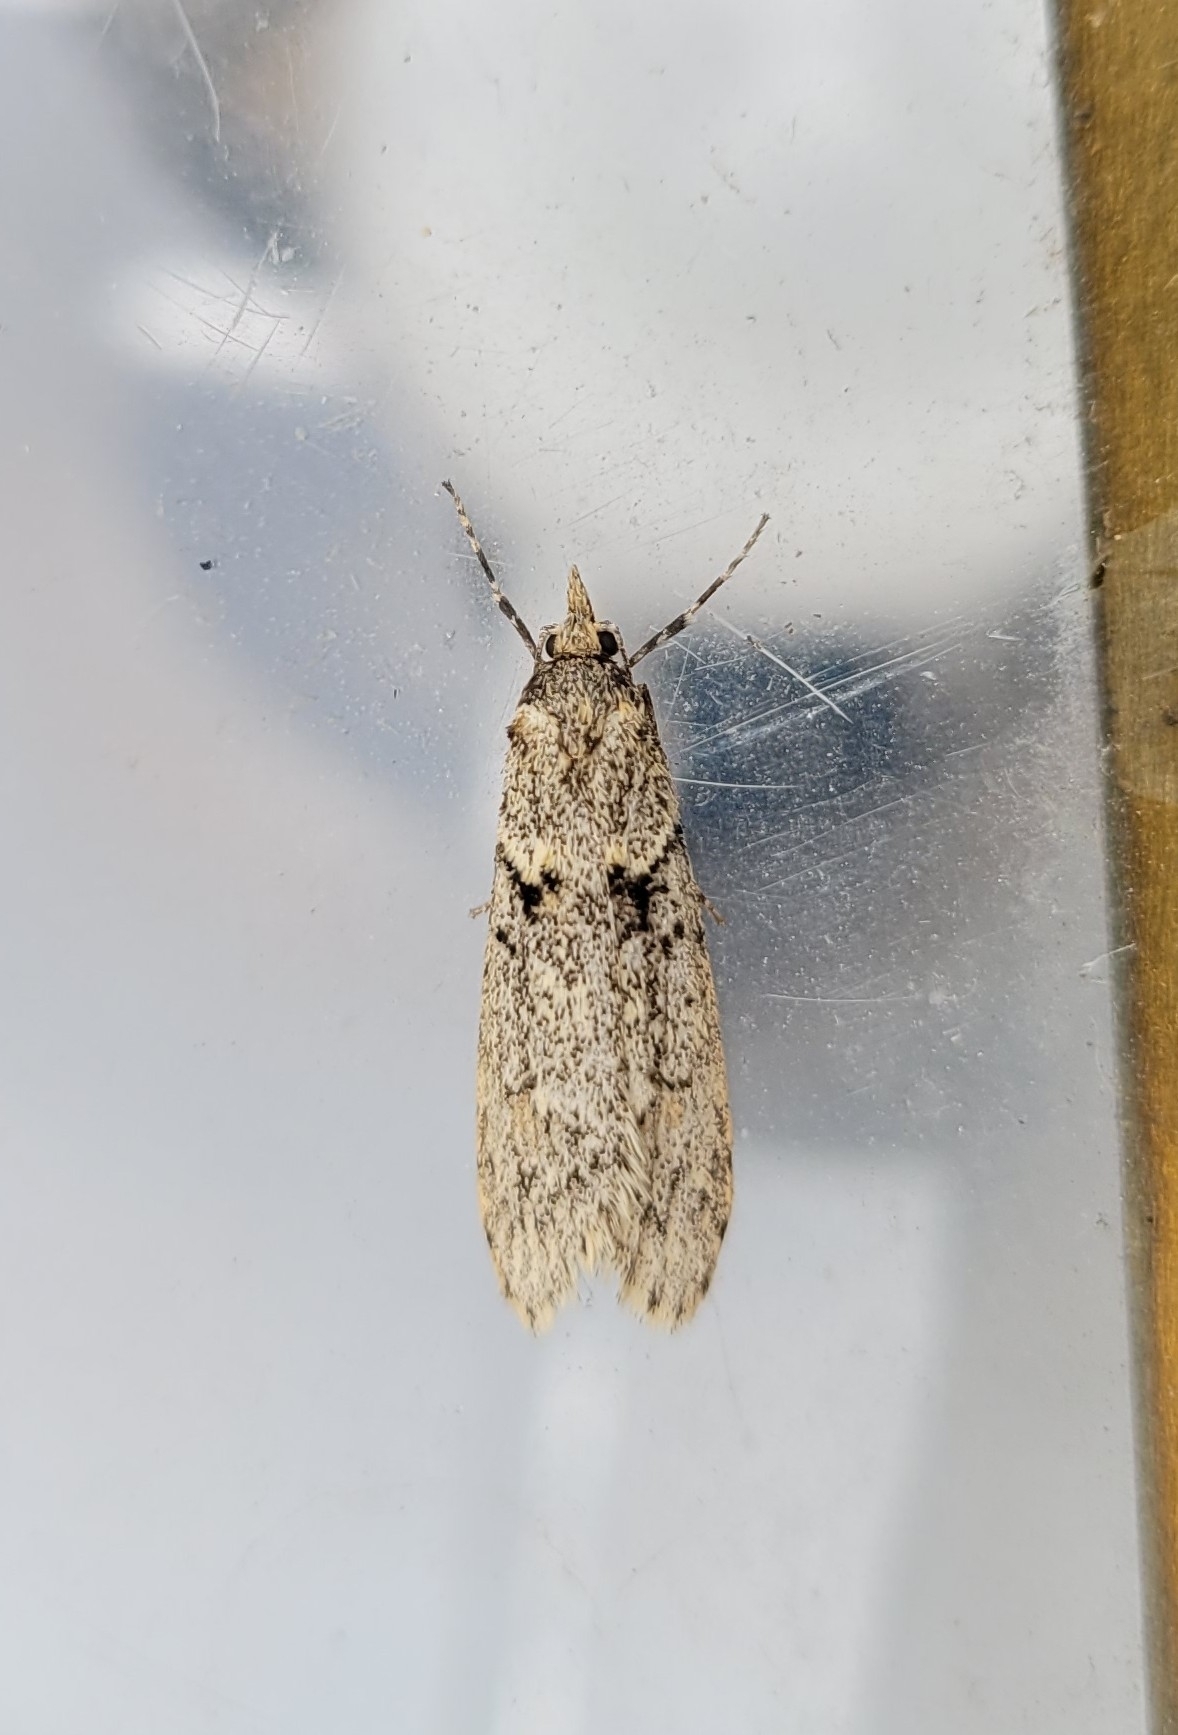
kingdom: Animalia
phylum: Arthropoda
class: Insecta
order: Lepidoptera
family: Lypusidae
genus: Diurnea
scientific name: Diurnea fagella
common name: March tubic
